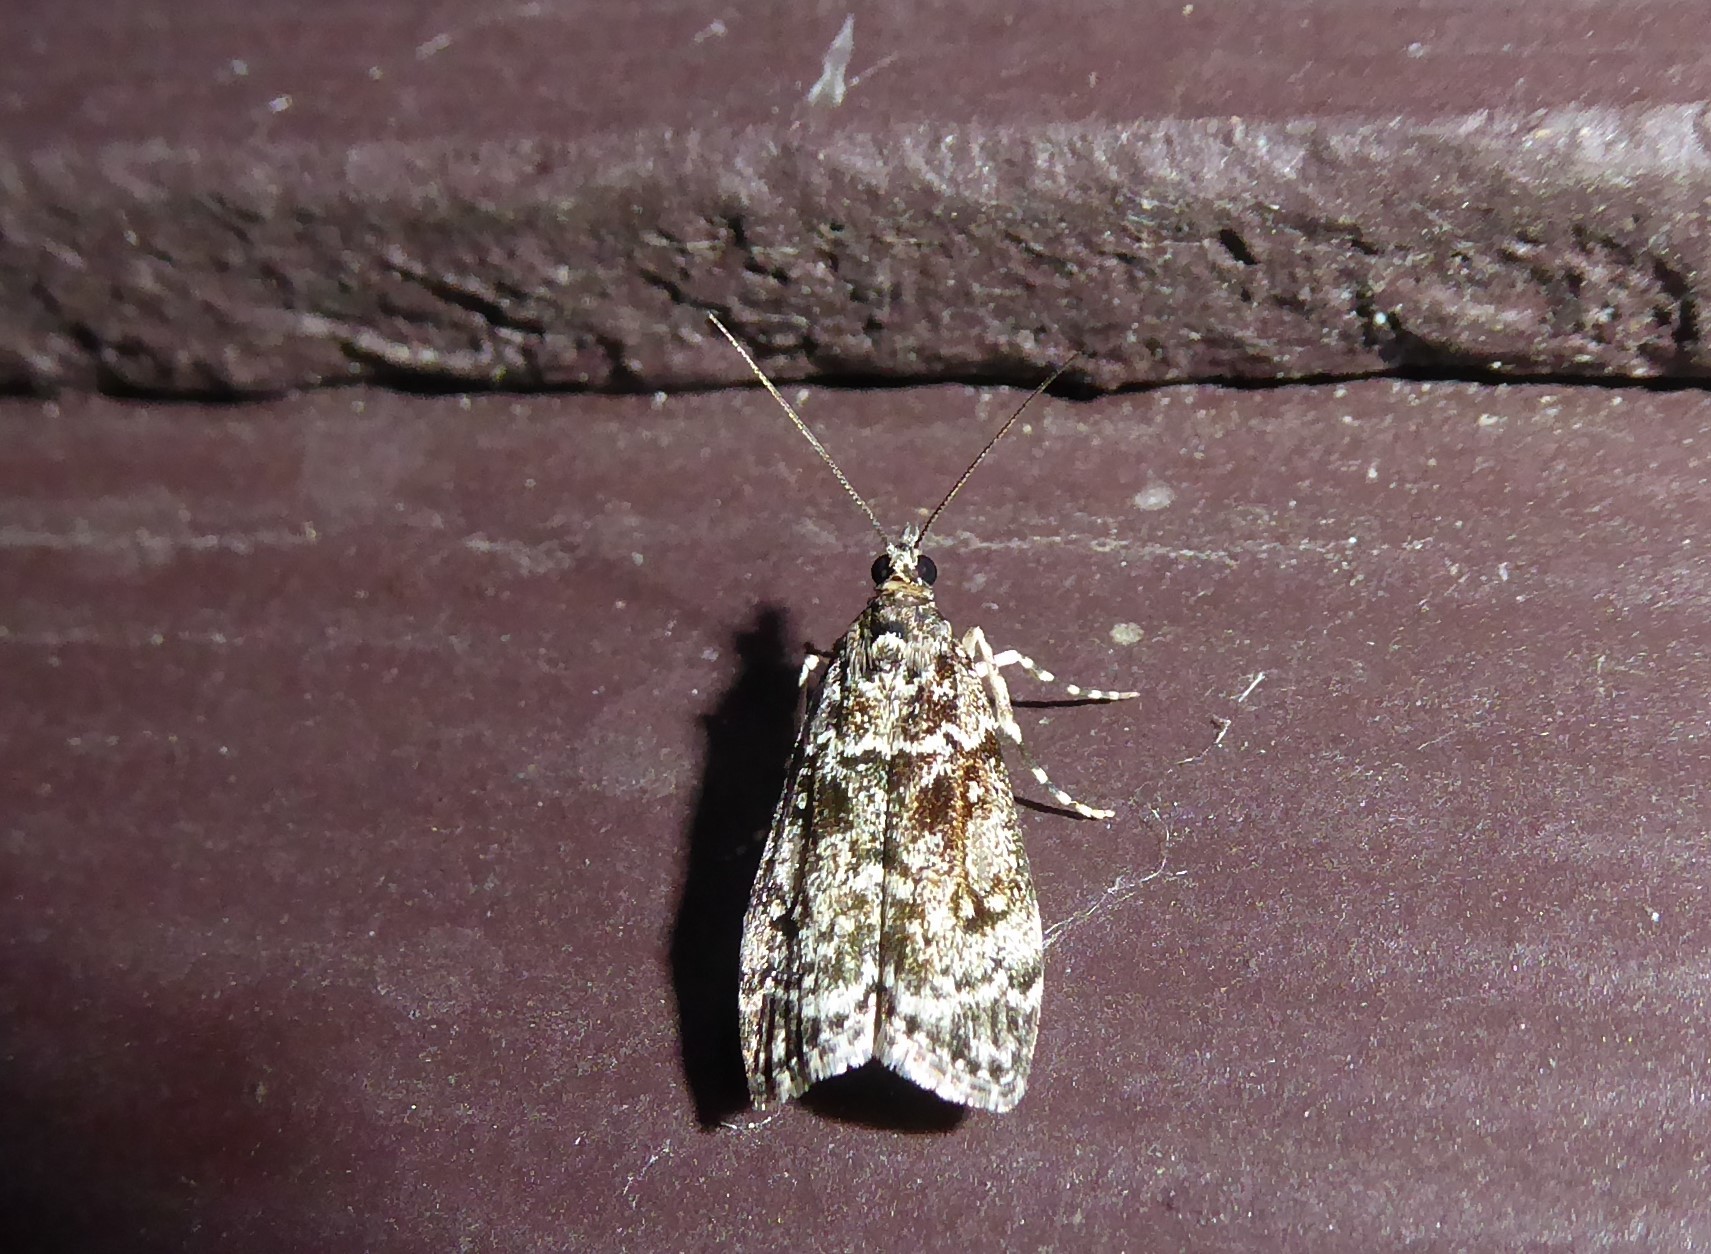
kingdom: Animalia
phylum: Arthropoda
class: Insecta
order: Lepidoptera
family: Crambidae
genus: Eudonia
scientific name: Eudonia philerga
